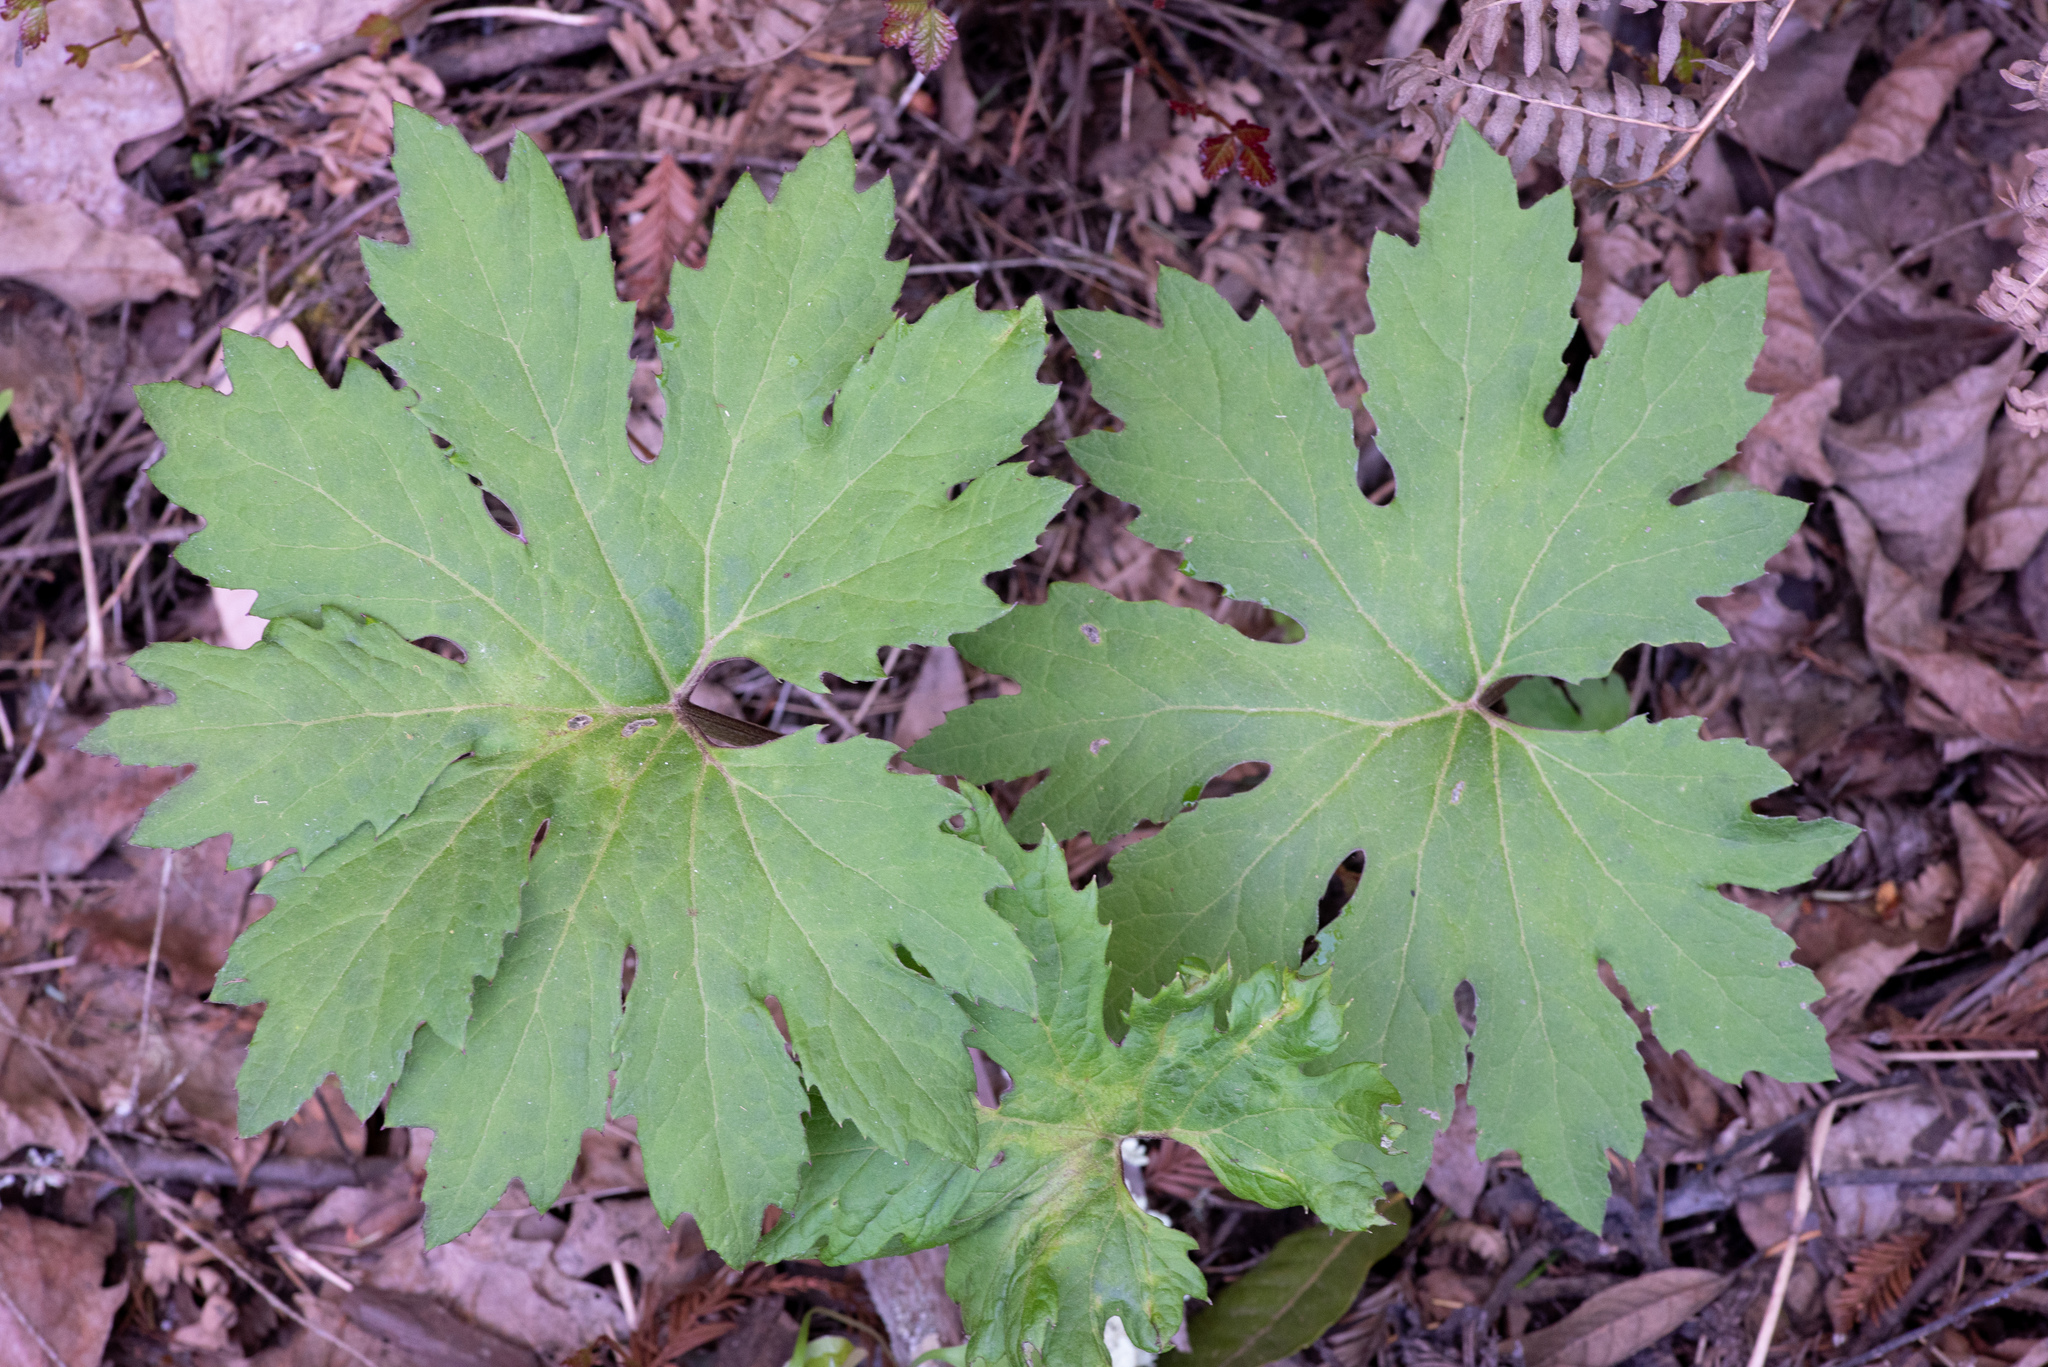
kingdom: Plantae
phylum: Tracheophyta
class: Magnoliopsida
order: Asterales
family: Asteraceae
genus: Petasites
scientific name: Petasites frigidus
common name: Arctic butterbur
